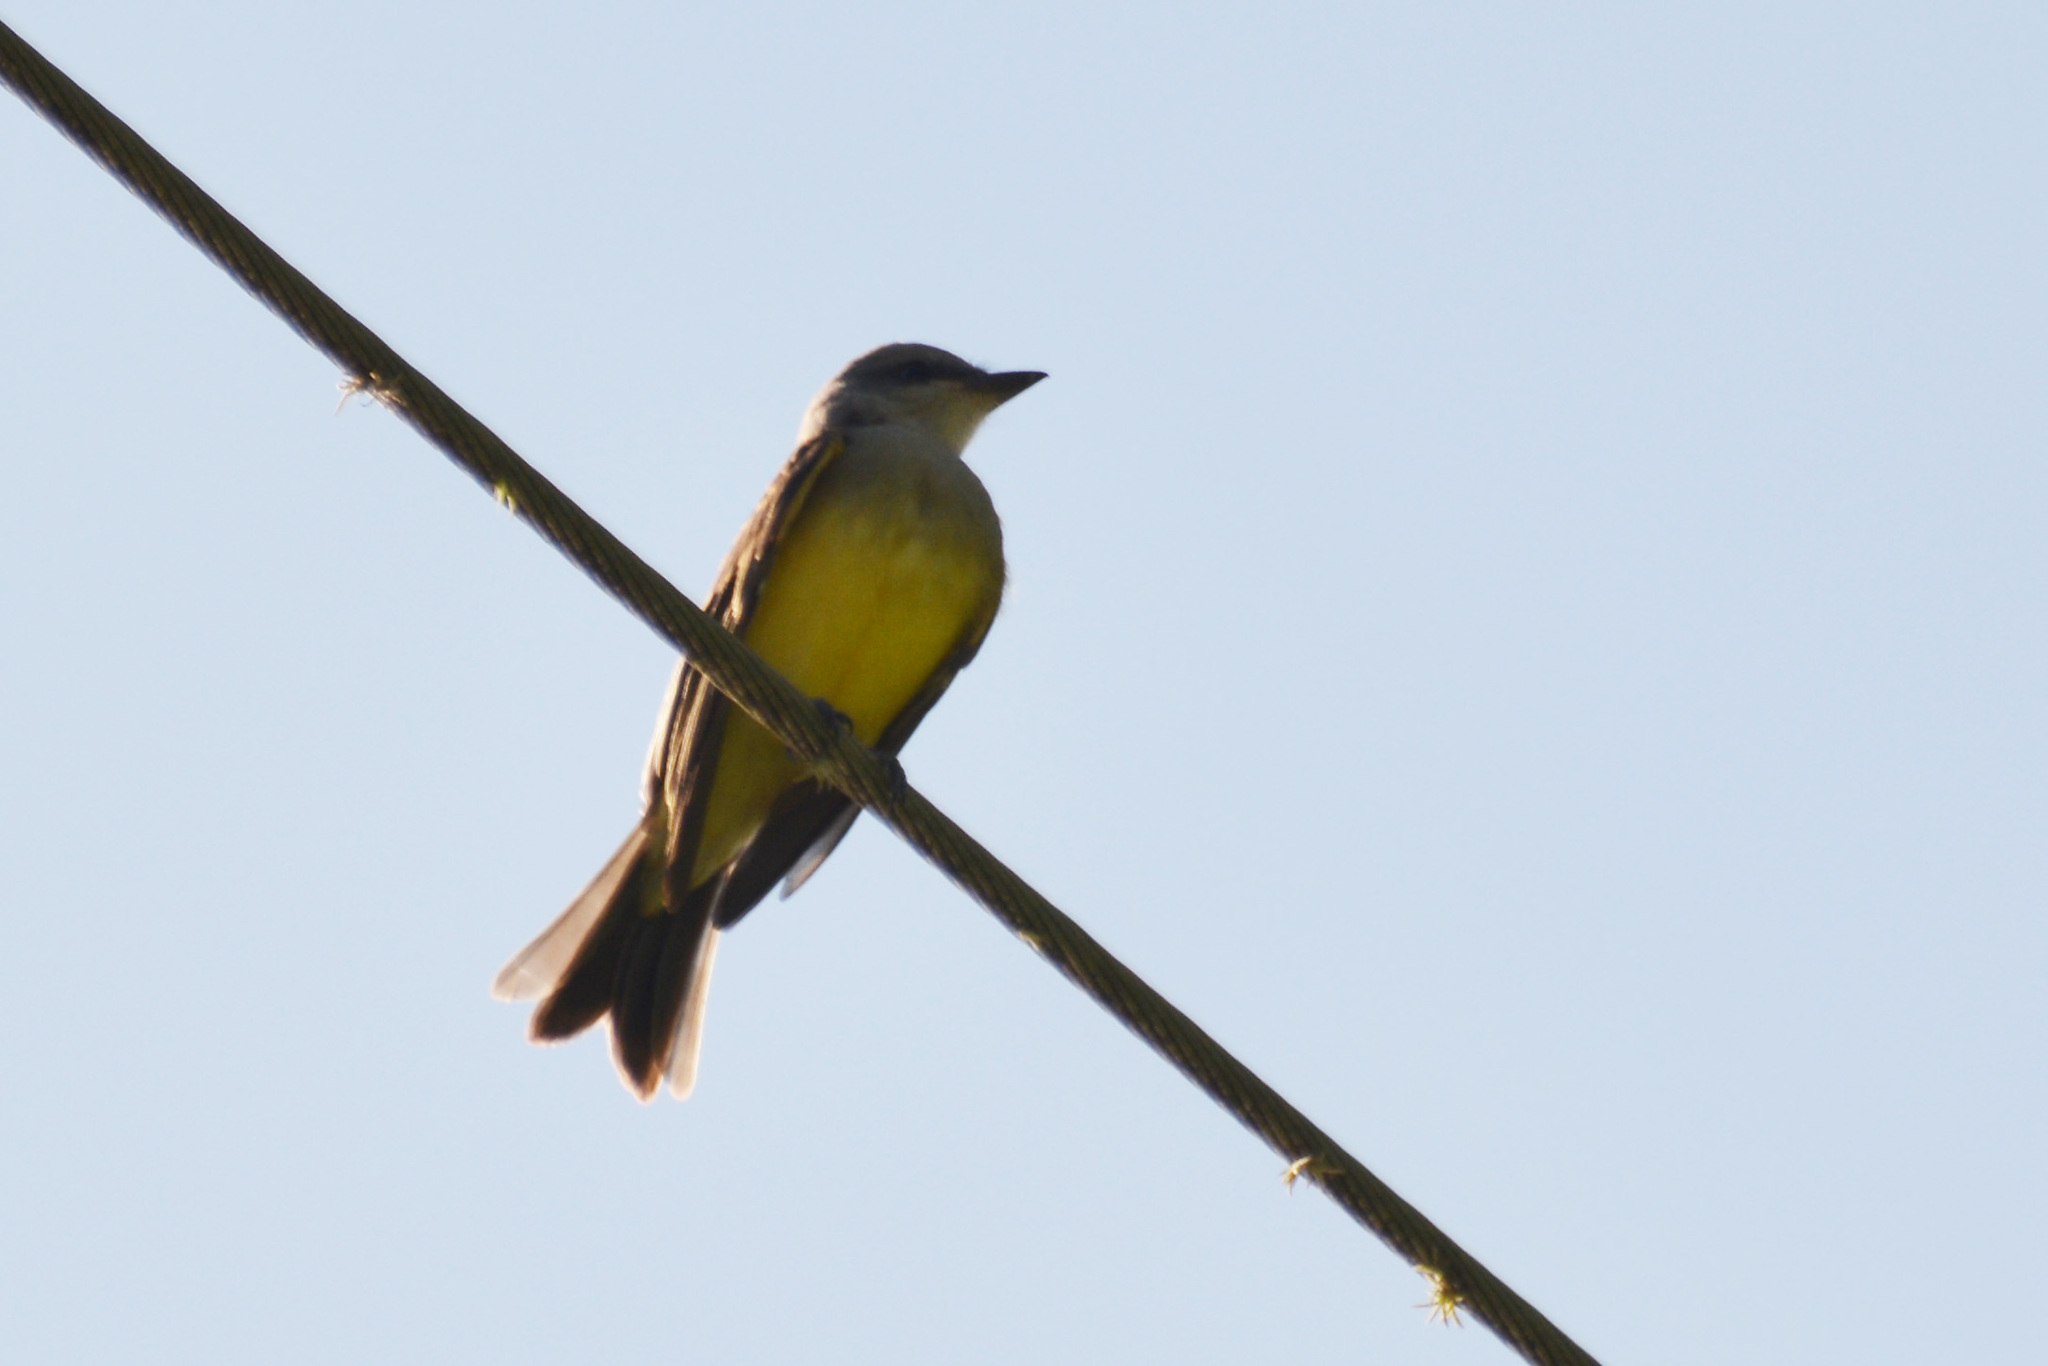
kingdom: Animalia
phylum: Chordata
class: Aves
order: Passeriformes
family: Tyrannidae
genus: Tyrannus
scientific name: Tyrannus melancholicus
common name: Tropical kingbird
